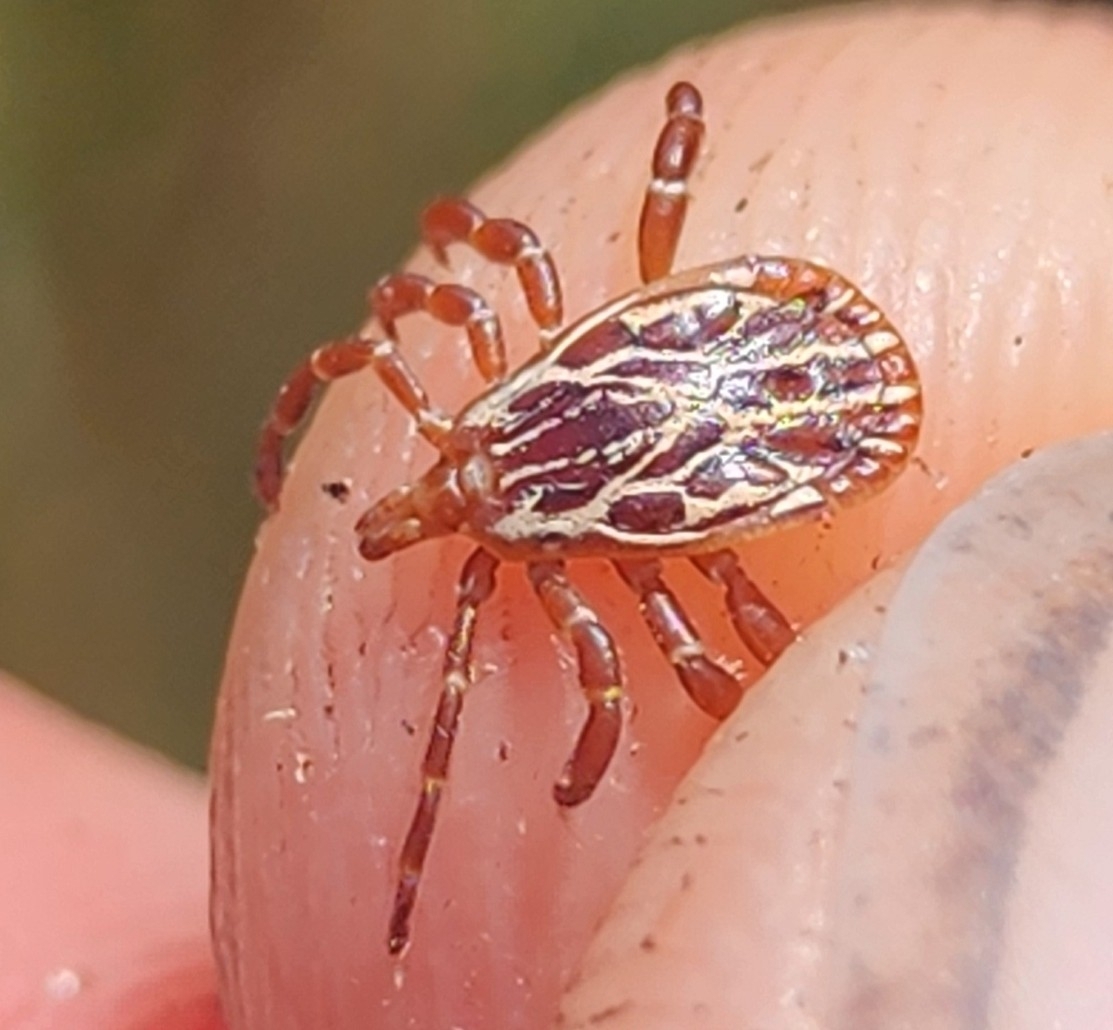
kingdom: Animalia
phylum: Arthropoda
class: Arachnida
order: Ixodida
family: Ixodidae
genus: Amblyomma
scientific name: Amblyomma maculatum
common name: Gulf coast tick
